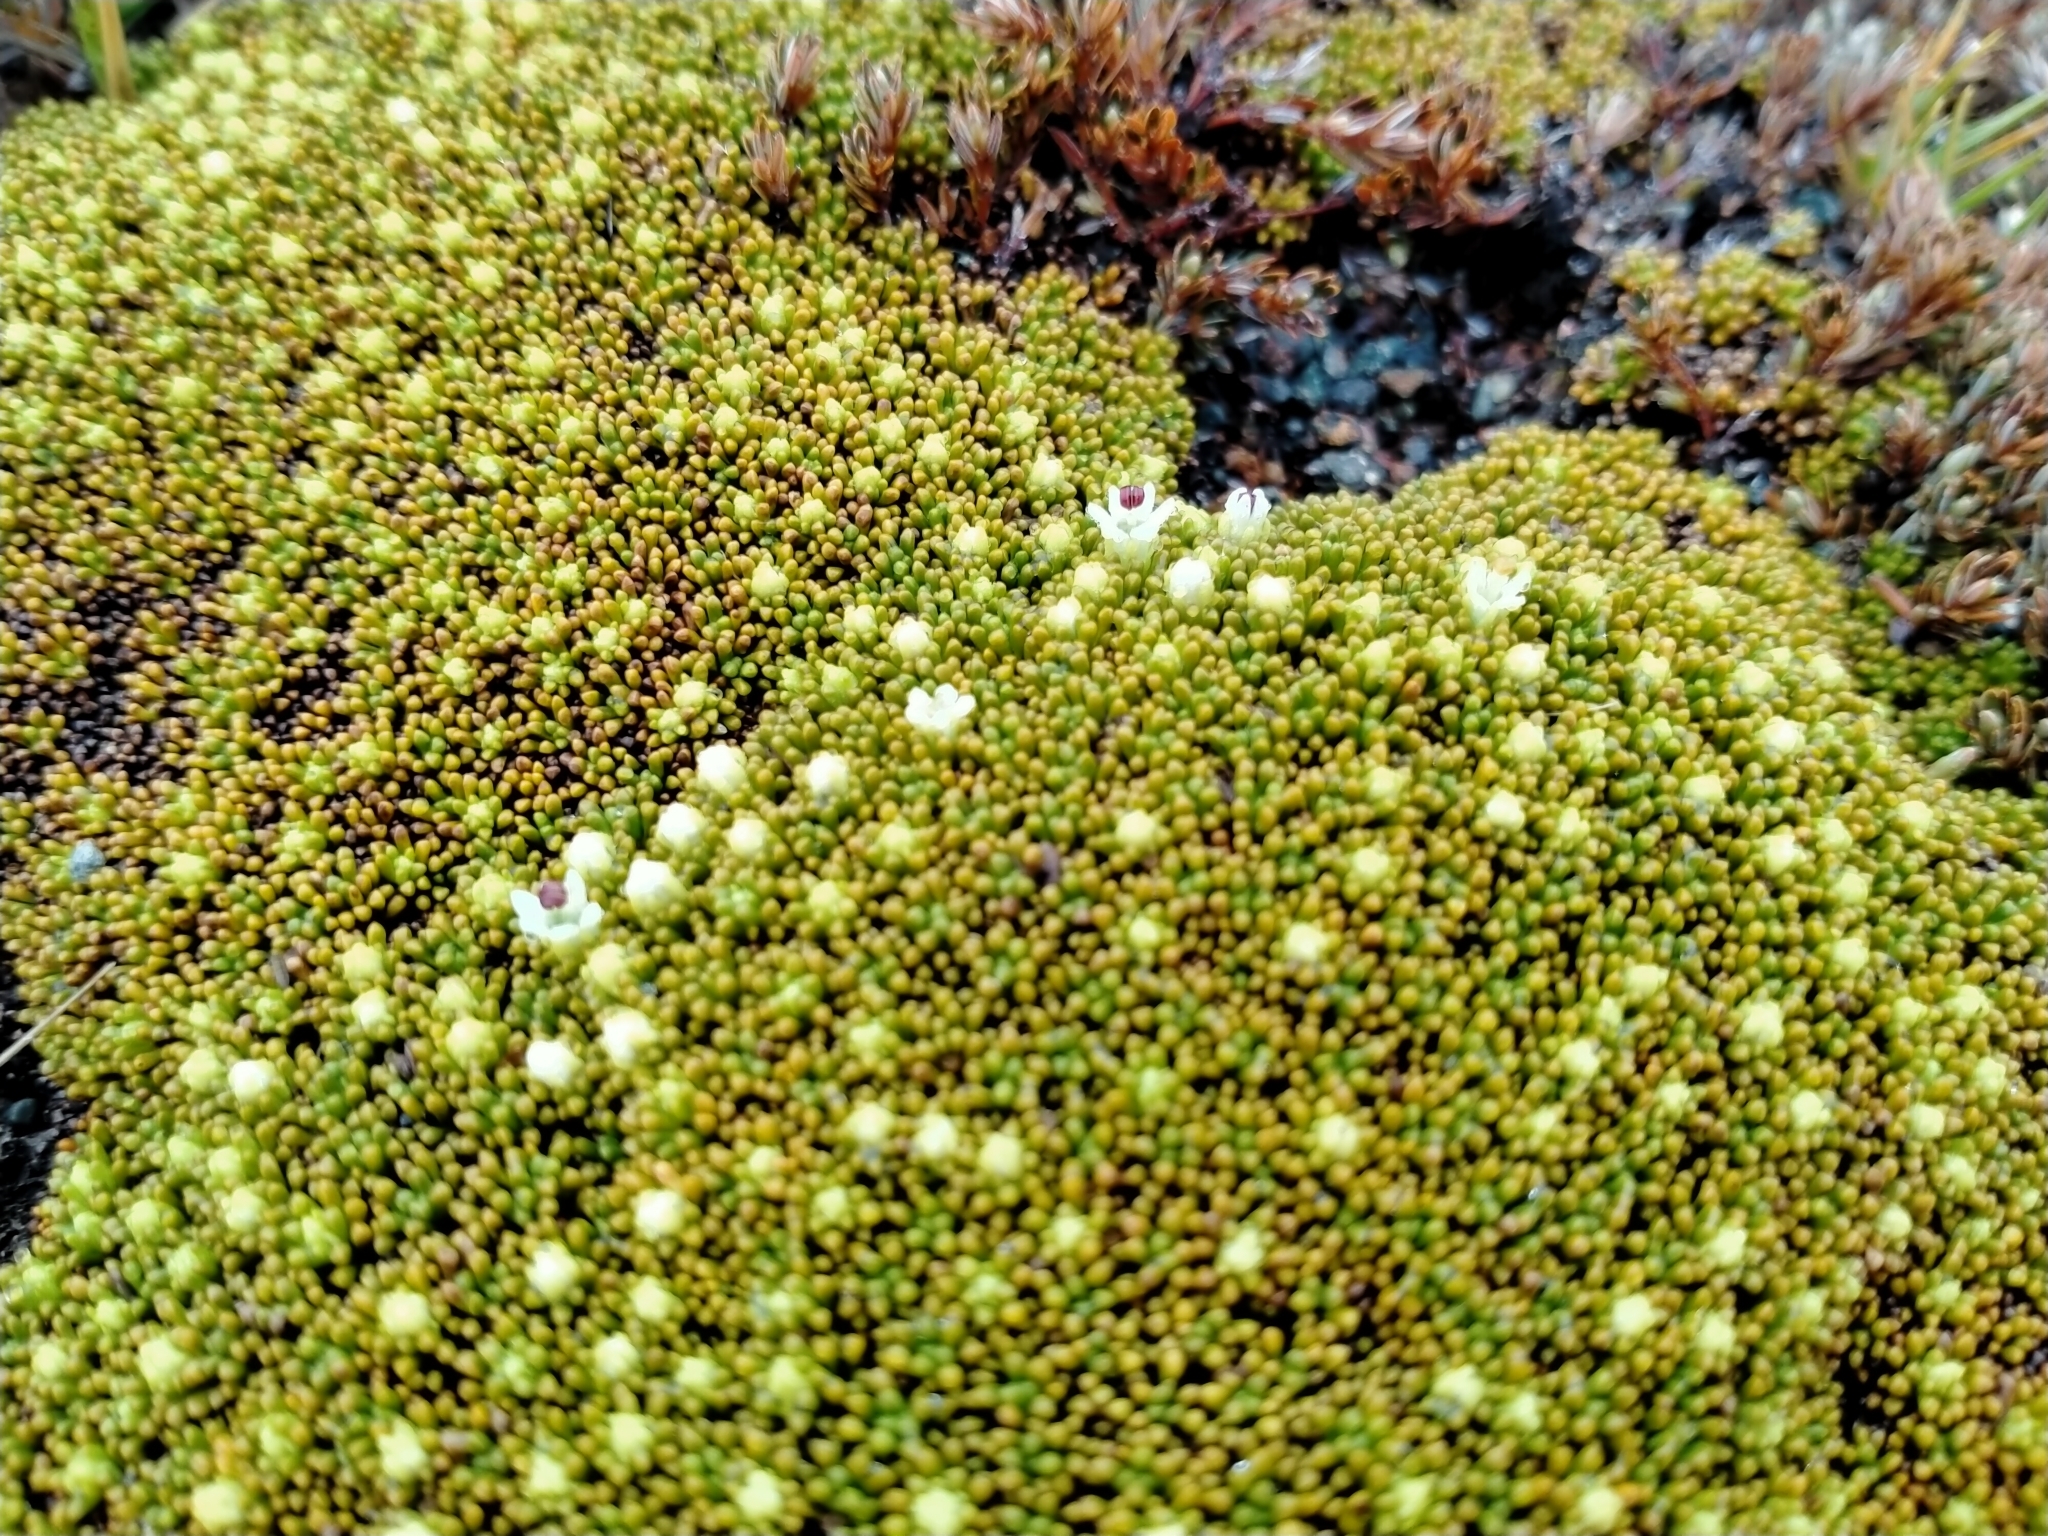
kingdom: Plantae
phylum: Tracheophyta
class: Magnoliopsida
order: Asterales
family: Stylidiaceae
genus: Phyllachne
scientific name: Phyllachne colensoi
